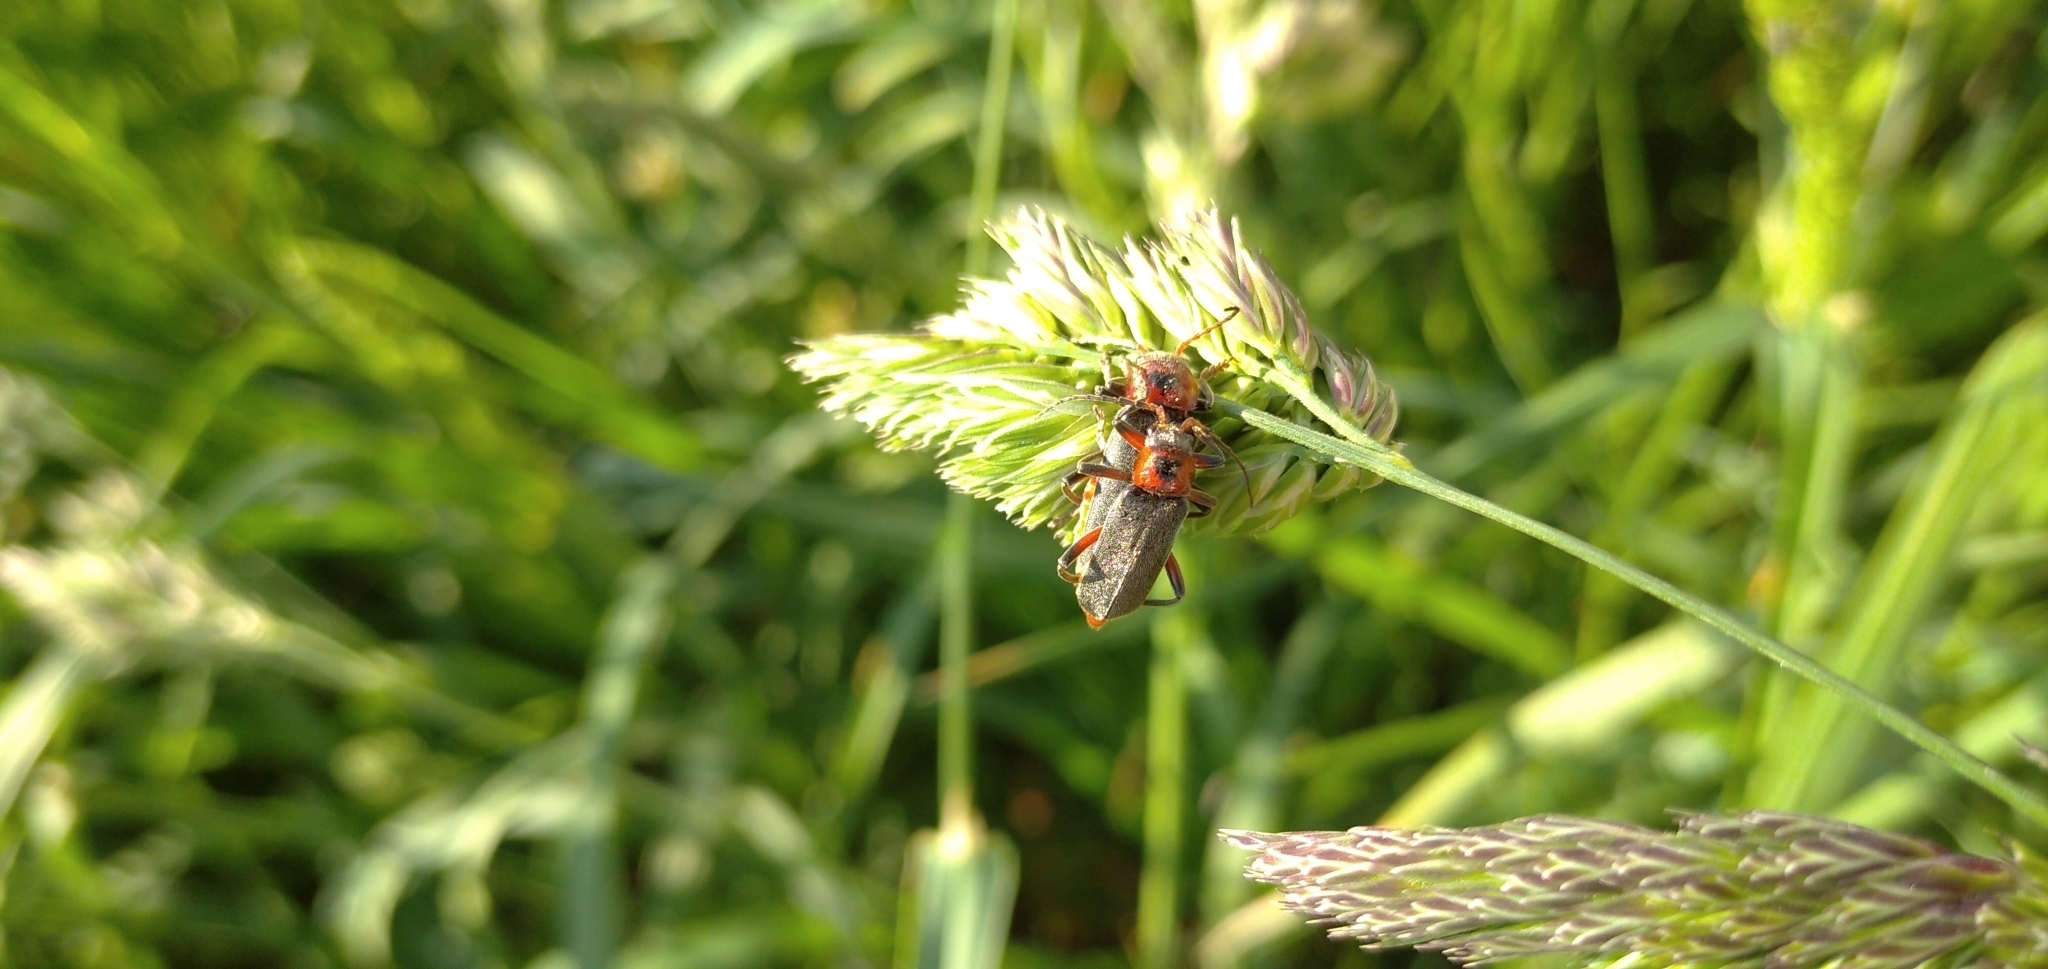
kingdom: Animalia
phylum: Arthropoda
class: Insecta
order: Coleoptera
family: Cantharidae
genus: Cantharis
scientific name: Cantharis rustica
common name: Soldier beetle
